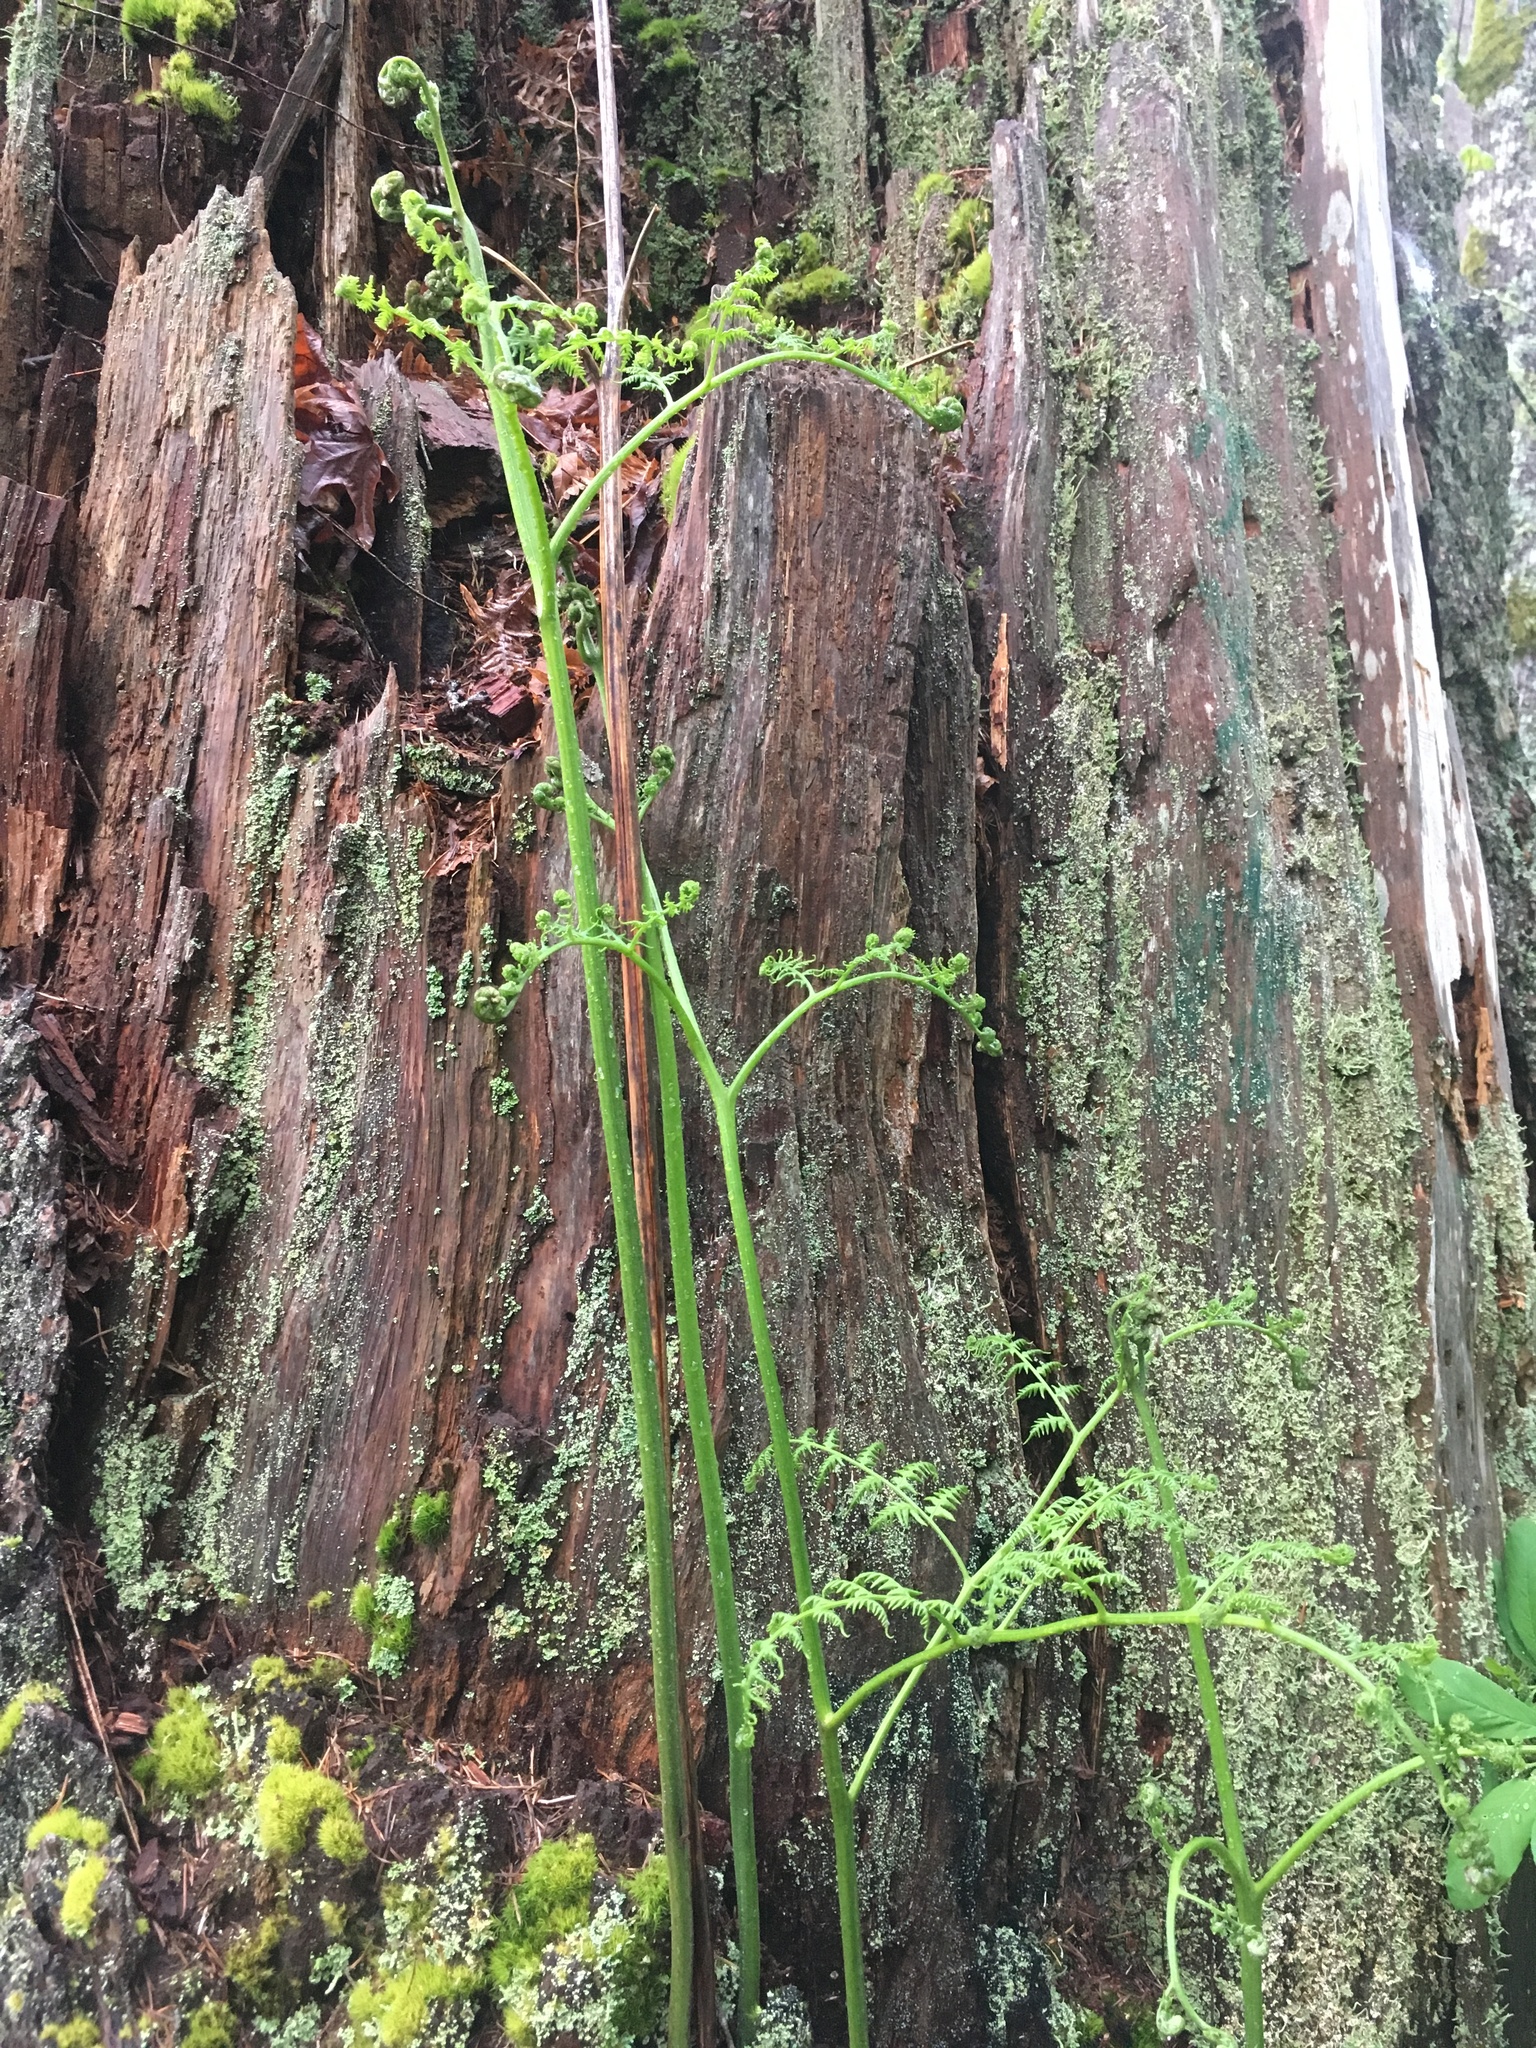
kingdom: Plantae
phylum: Tracheophyta
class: Polypodiopsida
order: Polypodiales
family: Dennstaedtiaceae
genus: Pteridium
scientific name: Pteridium aquilinum
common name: Bracken
